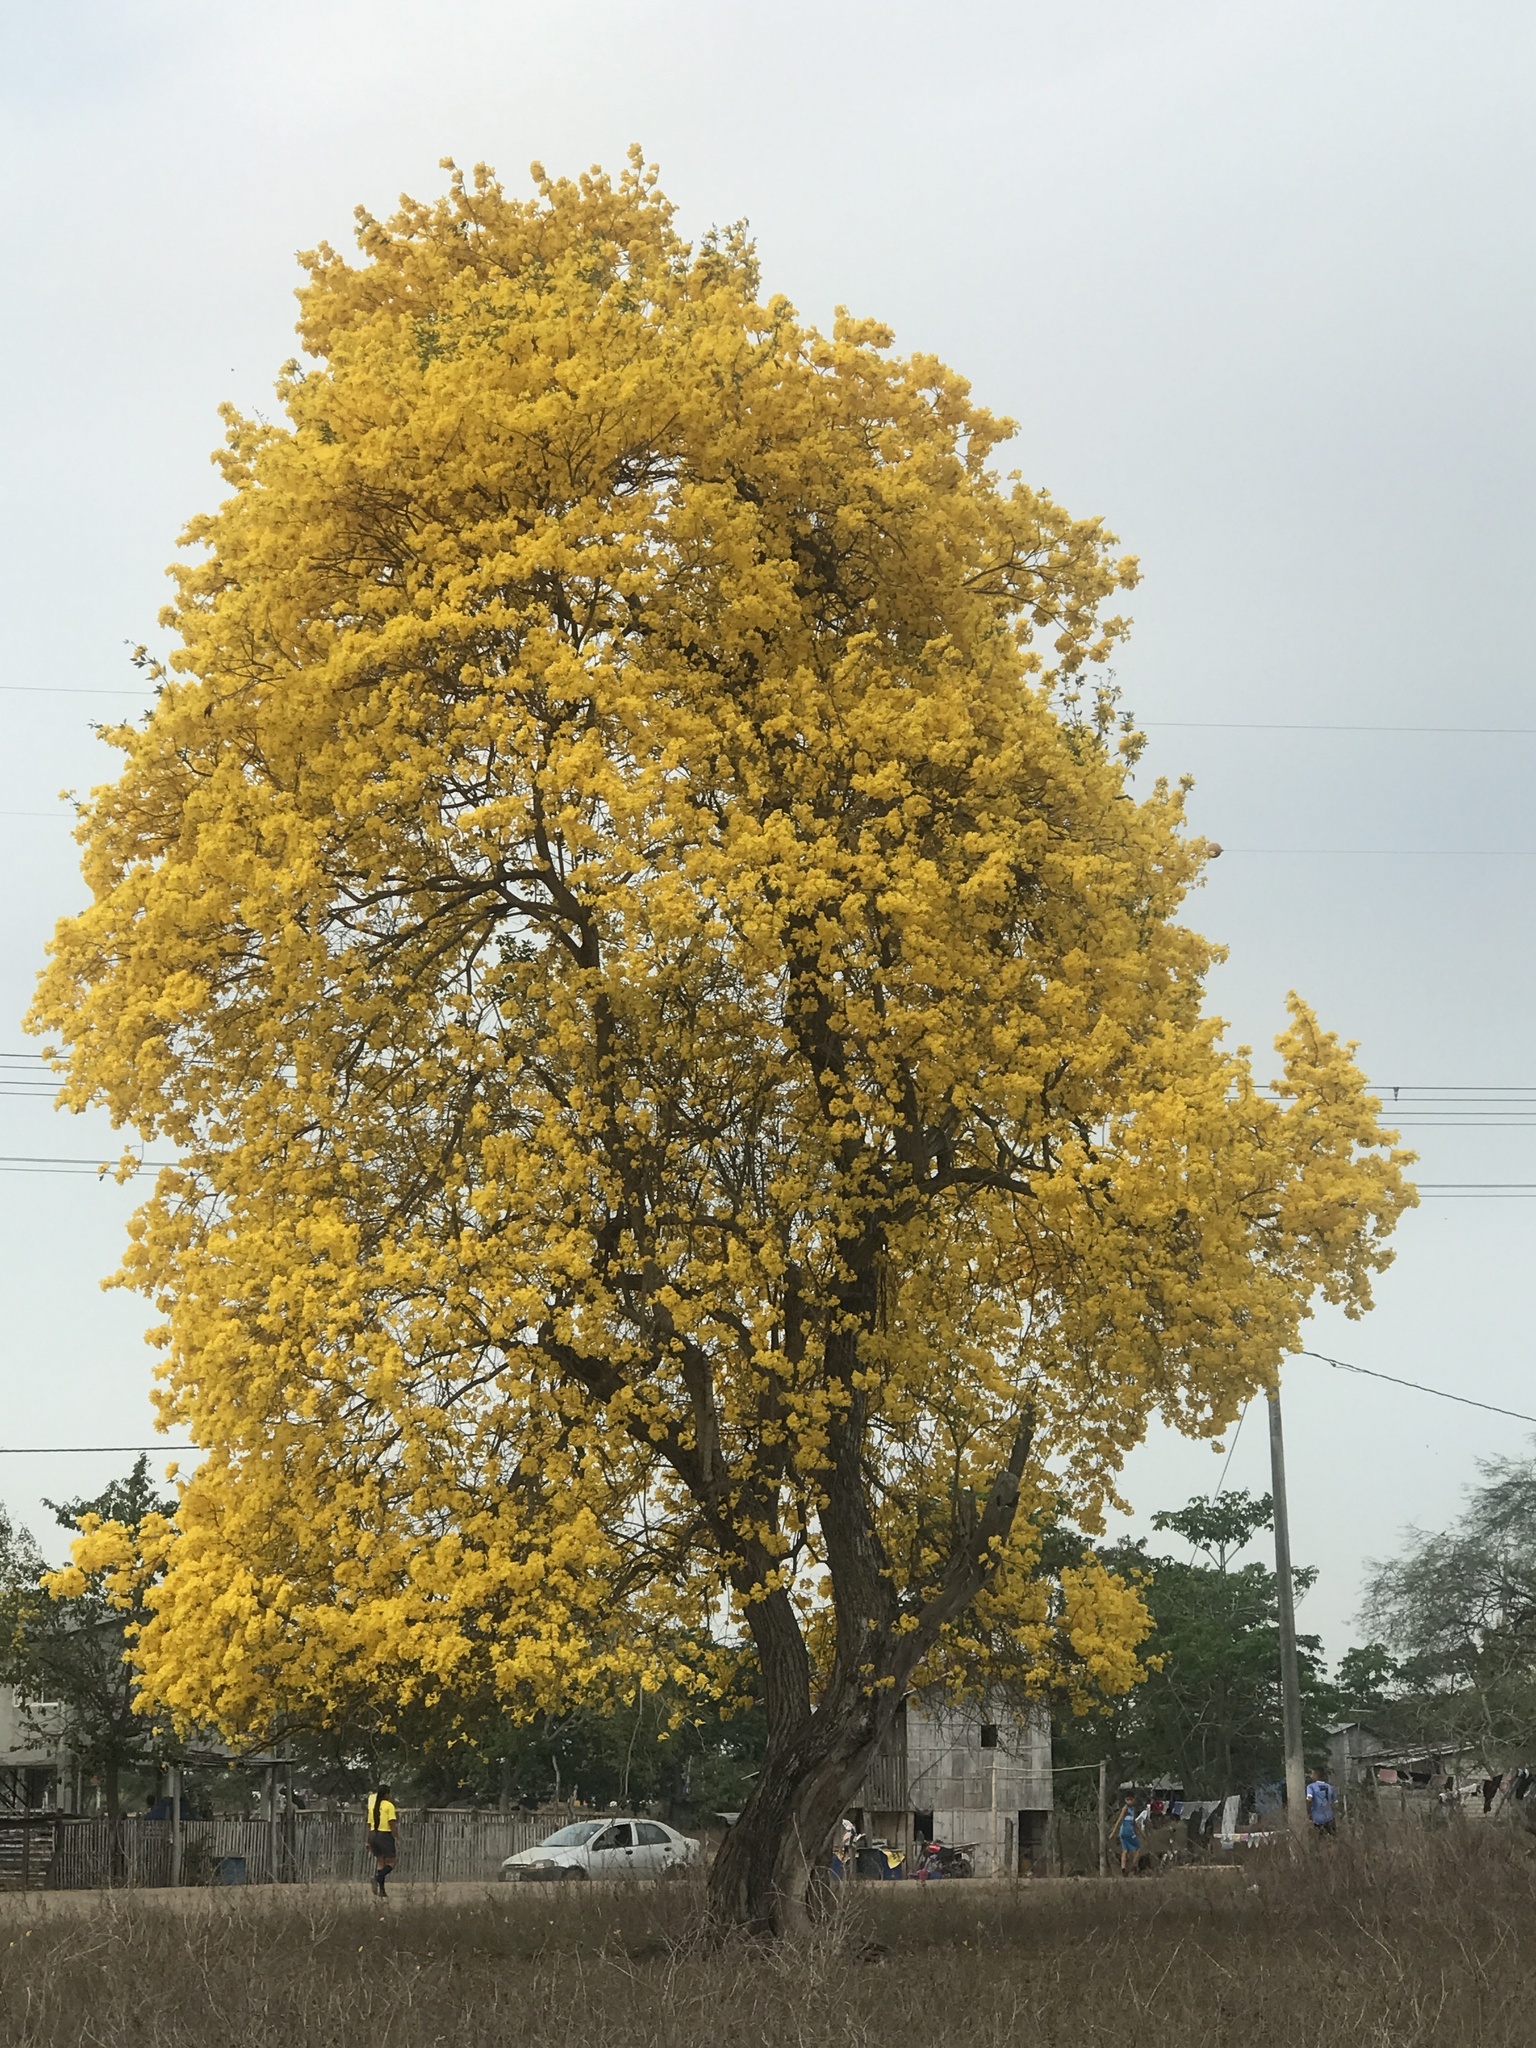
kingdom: Plantae
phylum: Tracheophyta
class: Magnoliopsida
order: Lamiales
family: Bignoniaceae
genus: Handroanthus
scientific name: Handroanthus chrysanthus
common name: Trumpet trees
